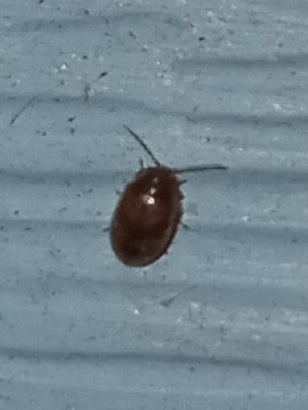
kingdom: Animalia
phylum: Arthropoda
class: Insecta
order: Coleoptera
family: Scirtidae
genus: Contacyphon
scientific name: Contacyphon
